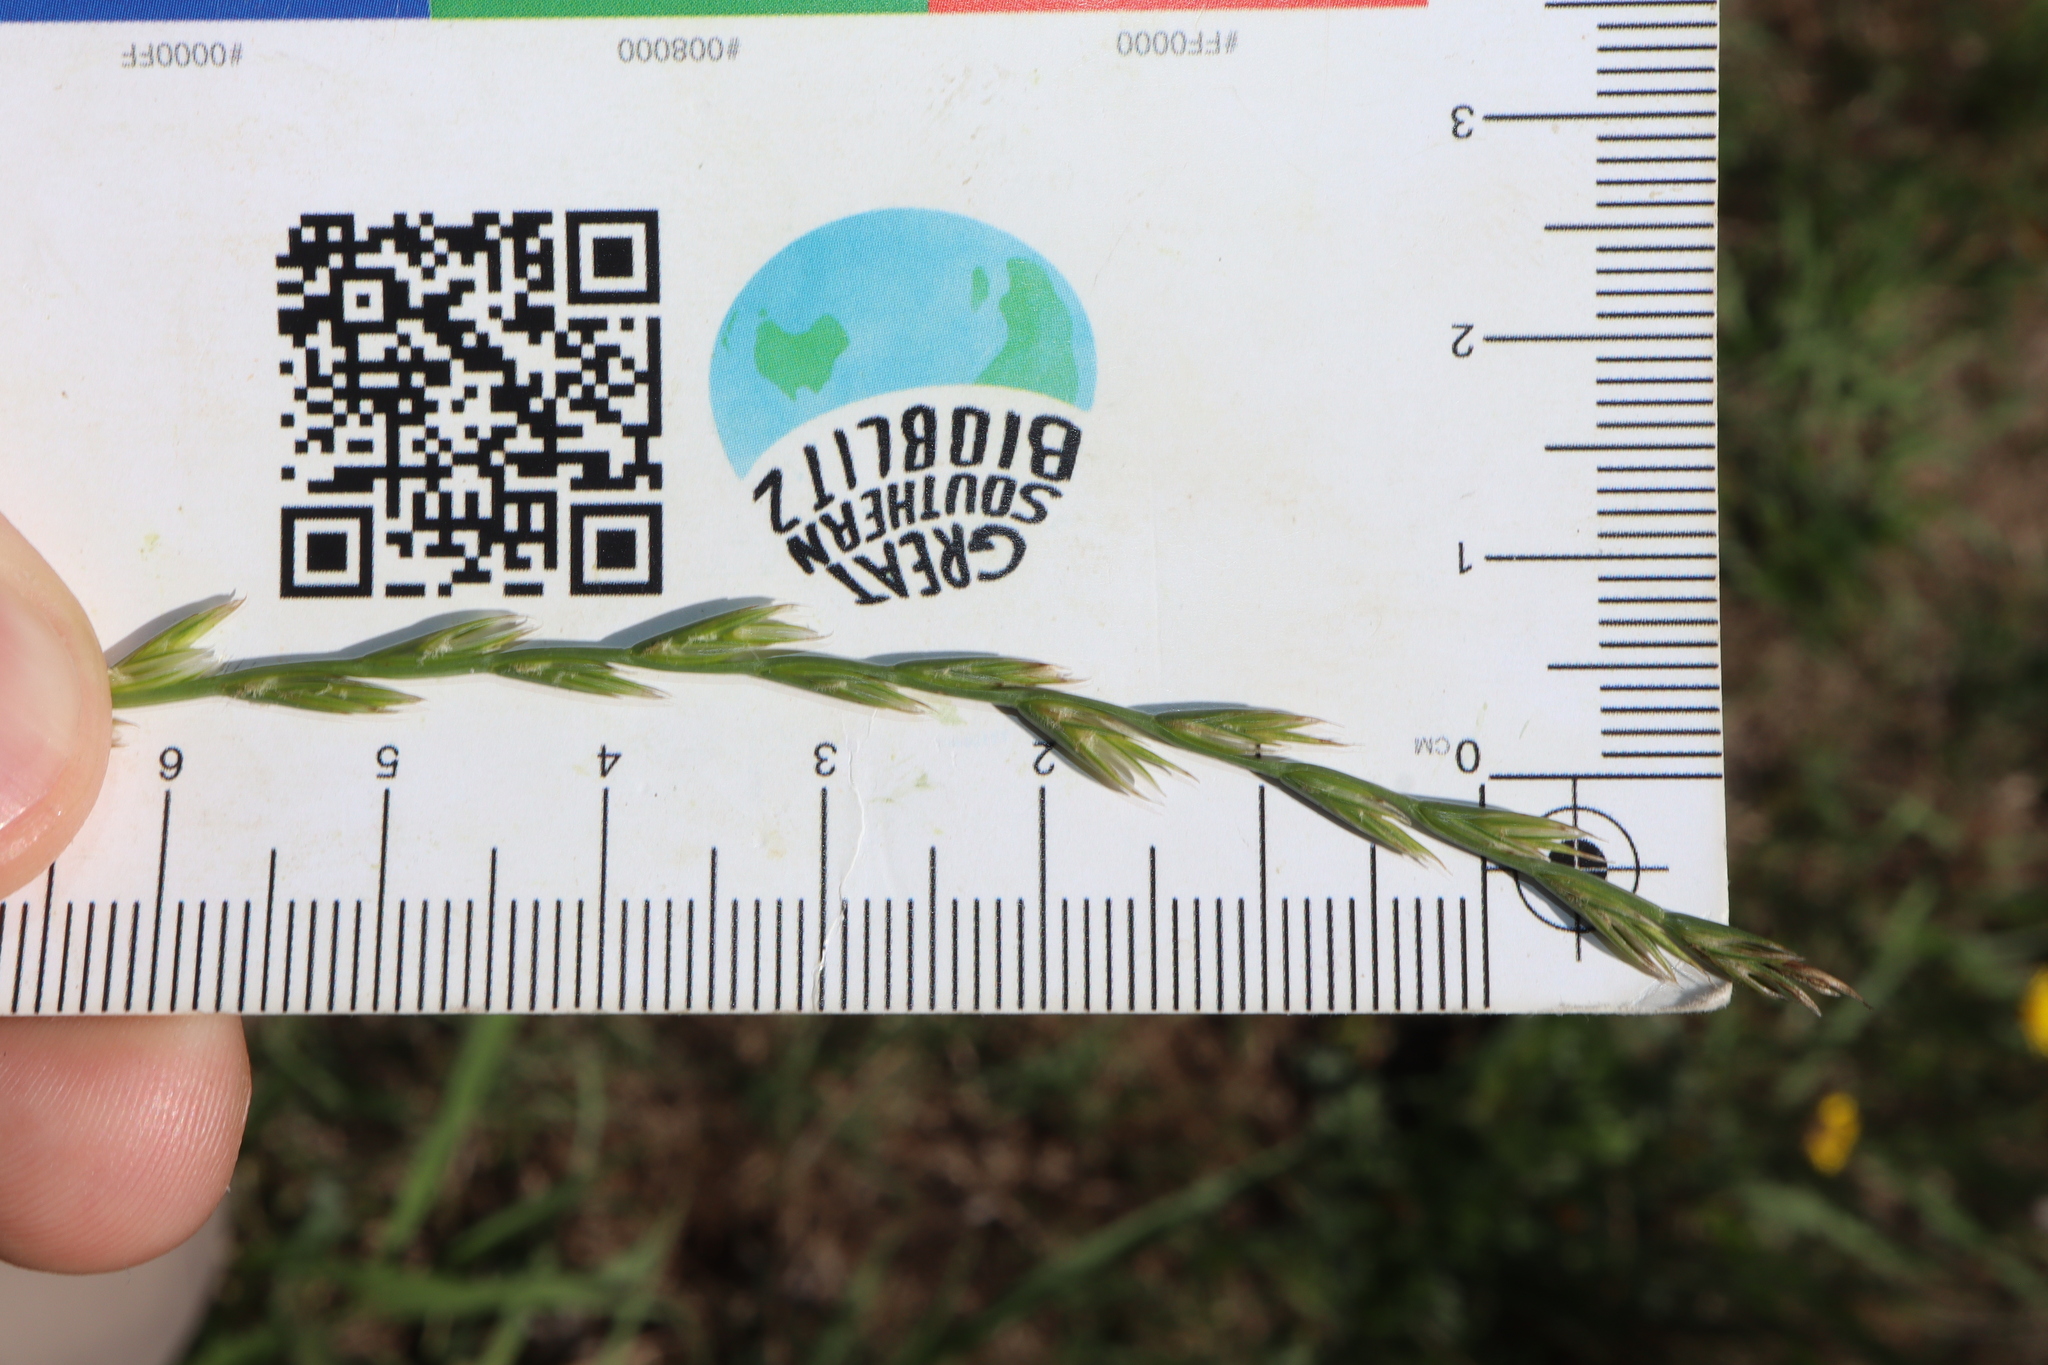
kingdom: Plantae
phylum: Tracheophyta
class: Liliopsida
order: Poales
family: Poaceae
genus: Lolium
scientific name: Lolium rigidum
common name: Wimmera ryegrass
